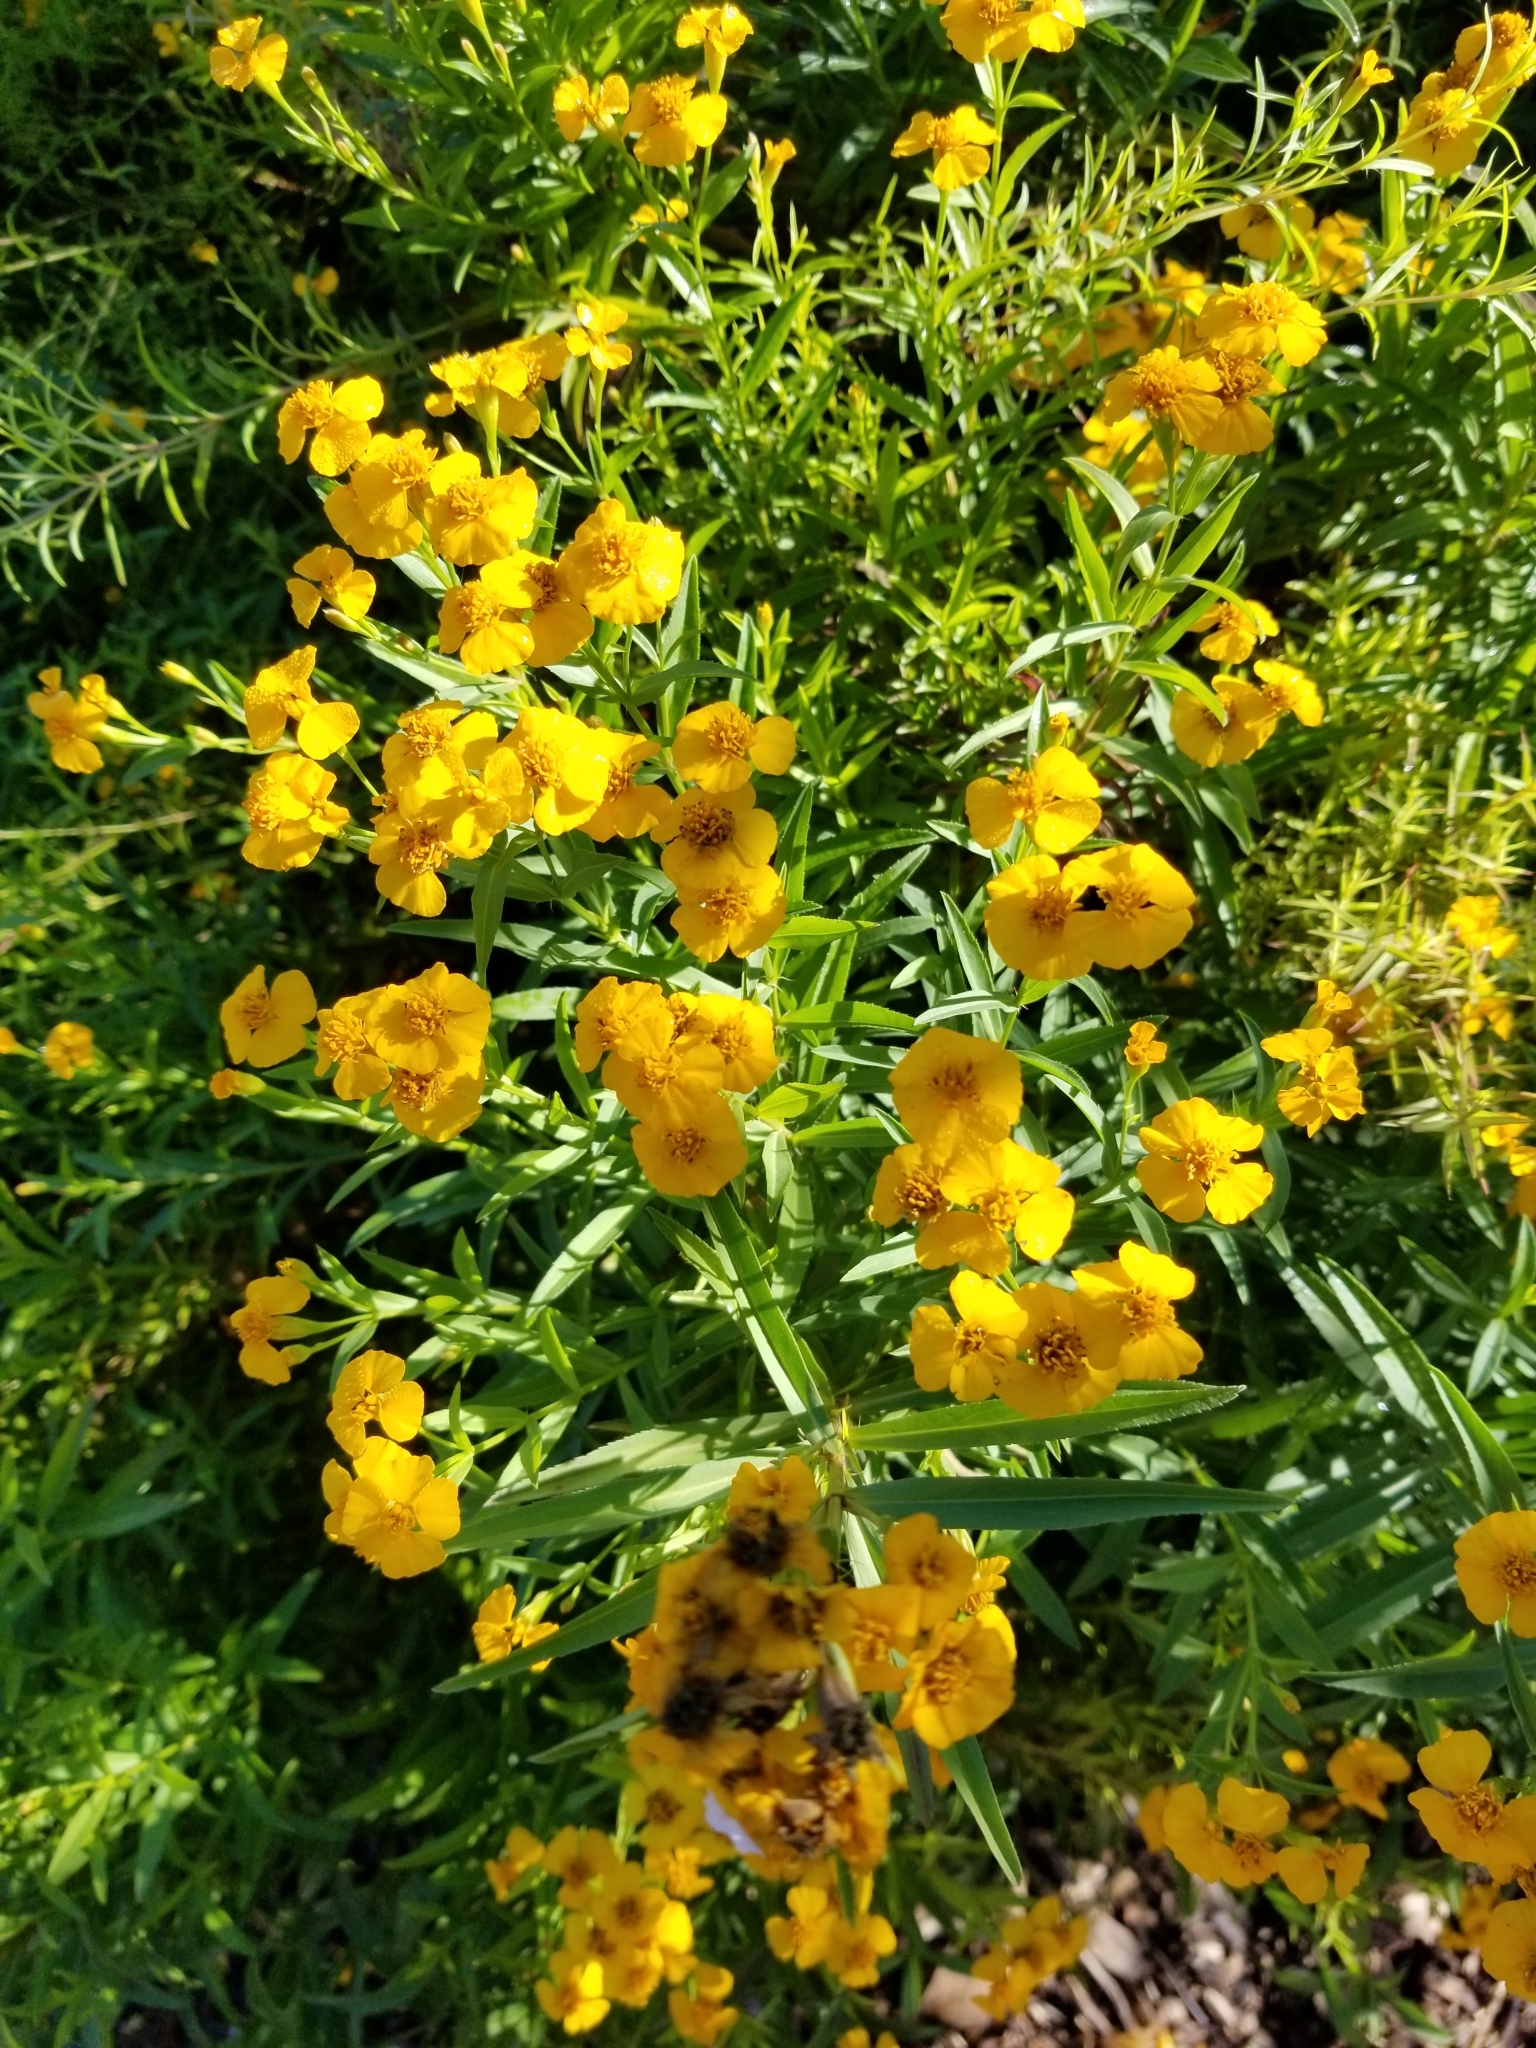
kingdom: Plantae
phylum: Tracheophyta
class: Magnoliopsida
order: Asterales
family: Asteraceae
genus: Tagetes
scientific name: Tagetes lucida
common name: Sweetscented marigold
